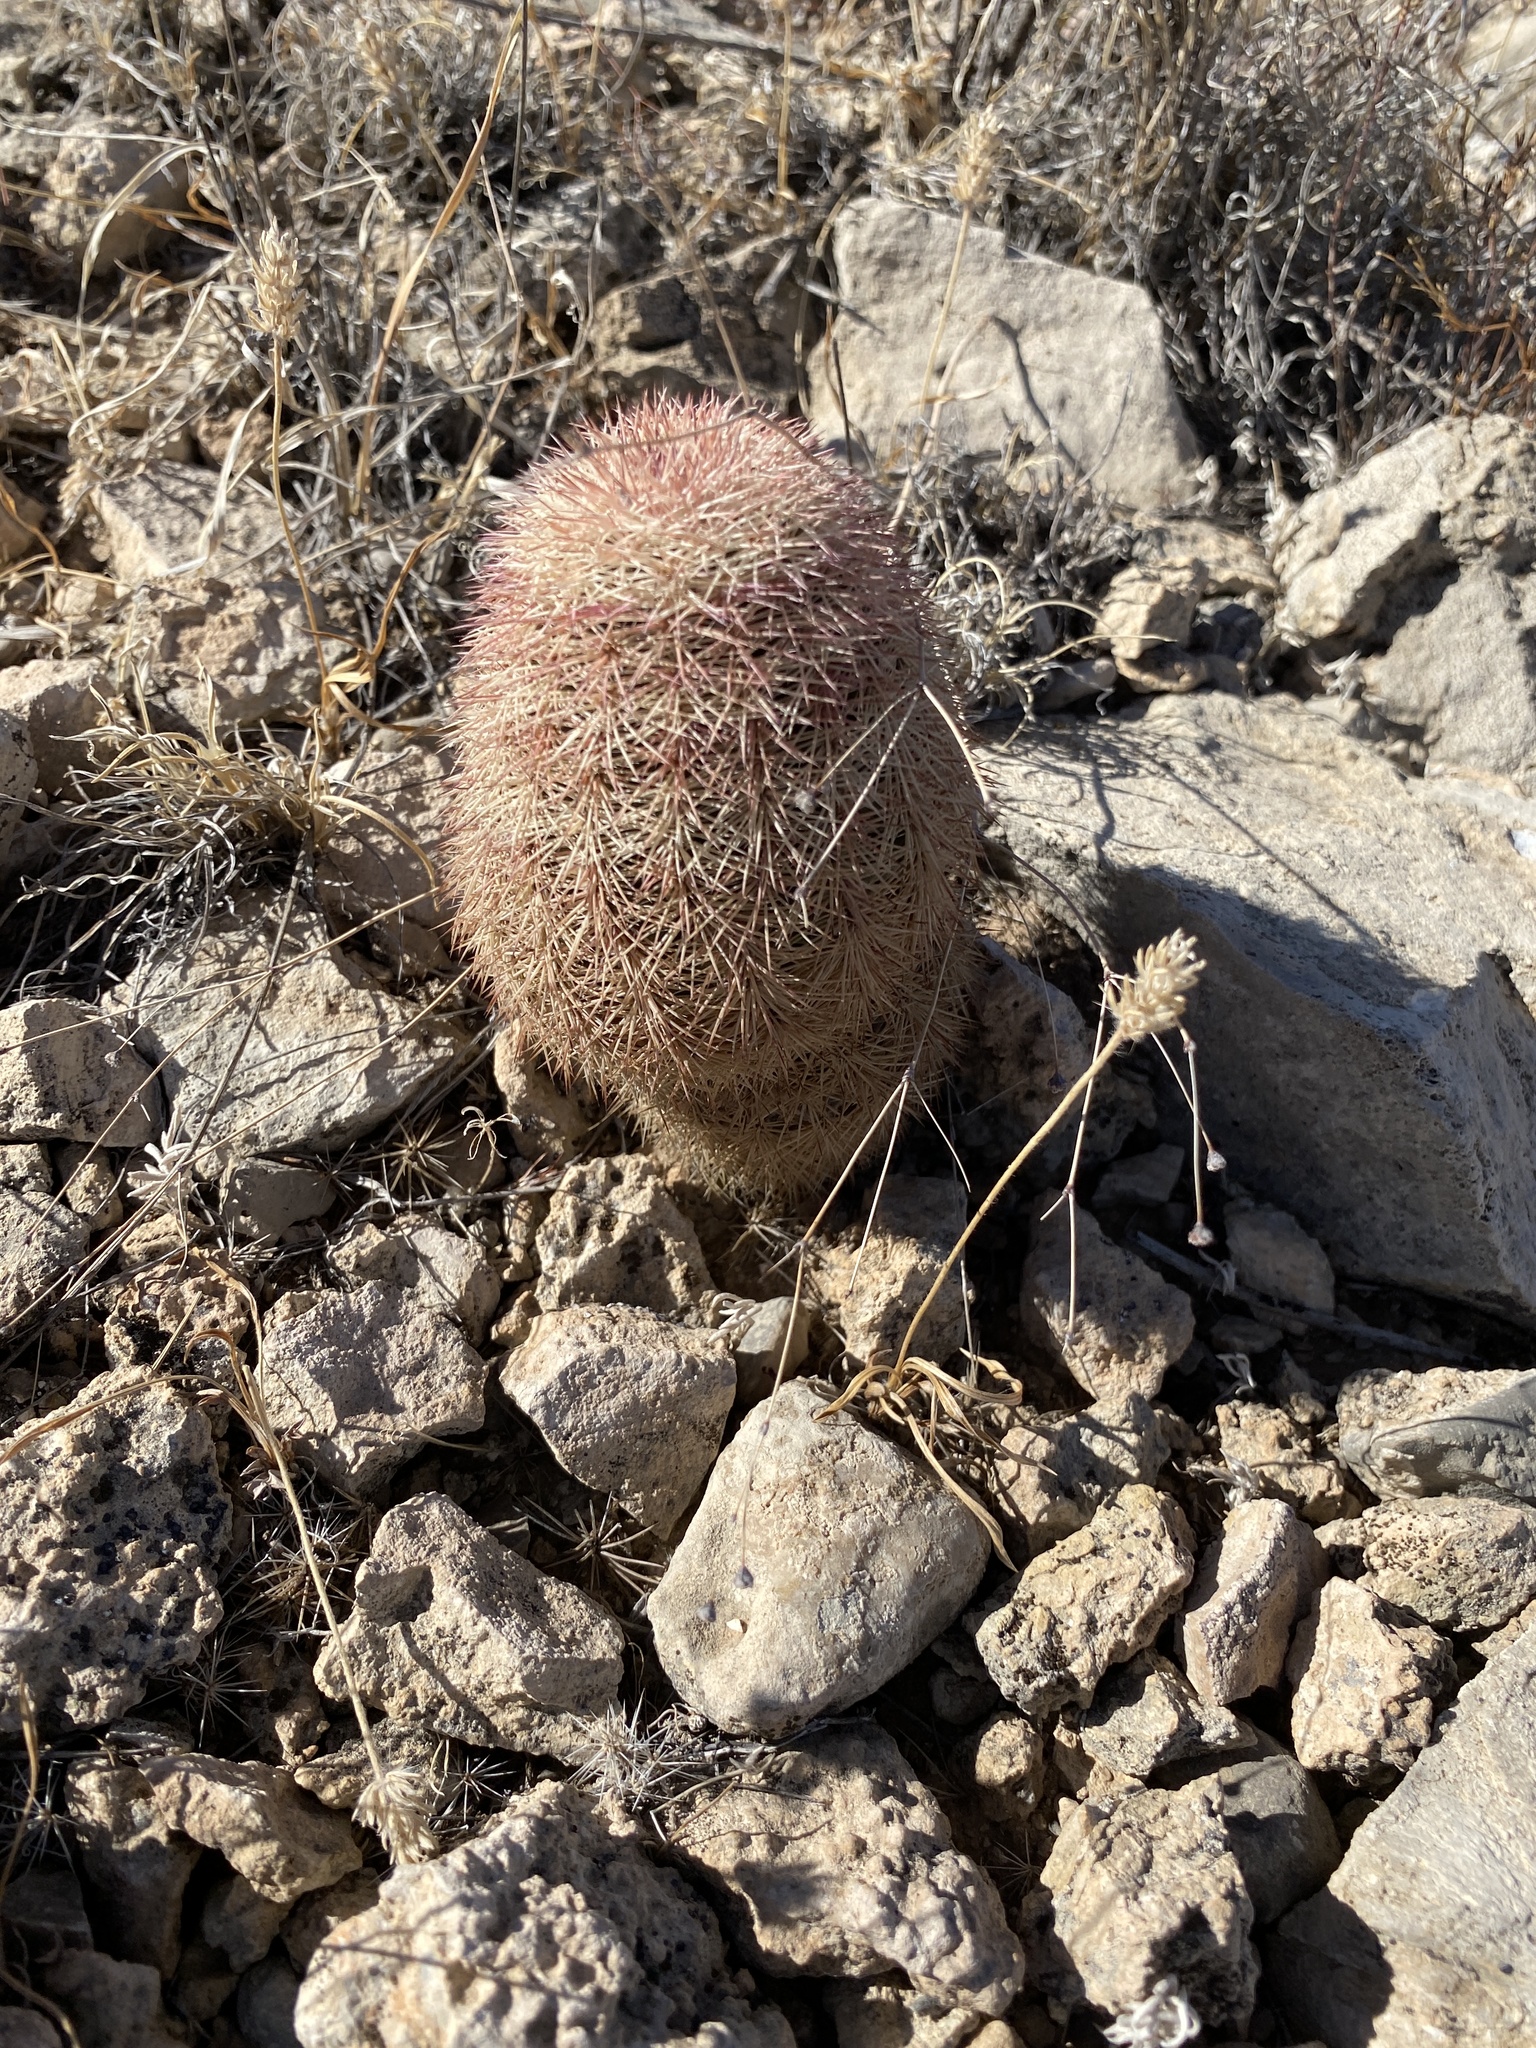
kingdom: Plantae
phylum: Tracheophyta
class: Magnoliopsida
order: Caryophyllales
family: Cactaceae
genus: Echinocereus
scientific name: Echinocereus dasyacanthus
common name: Spiny hedgehog cactus
